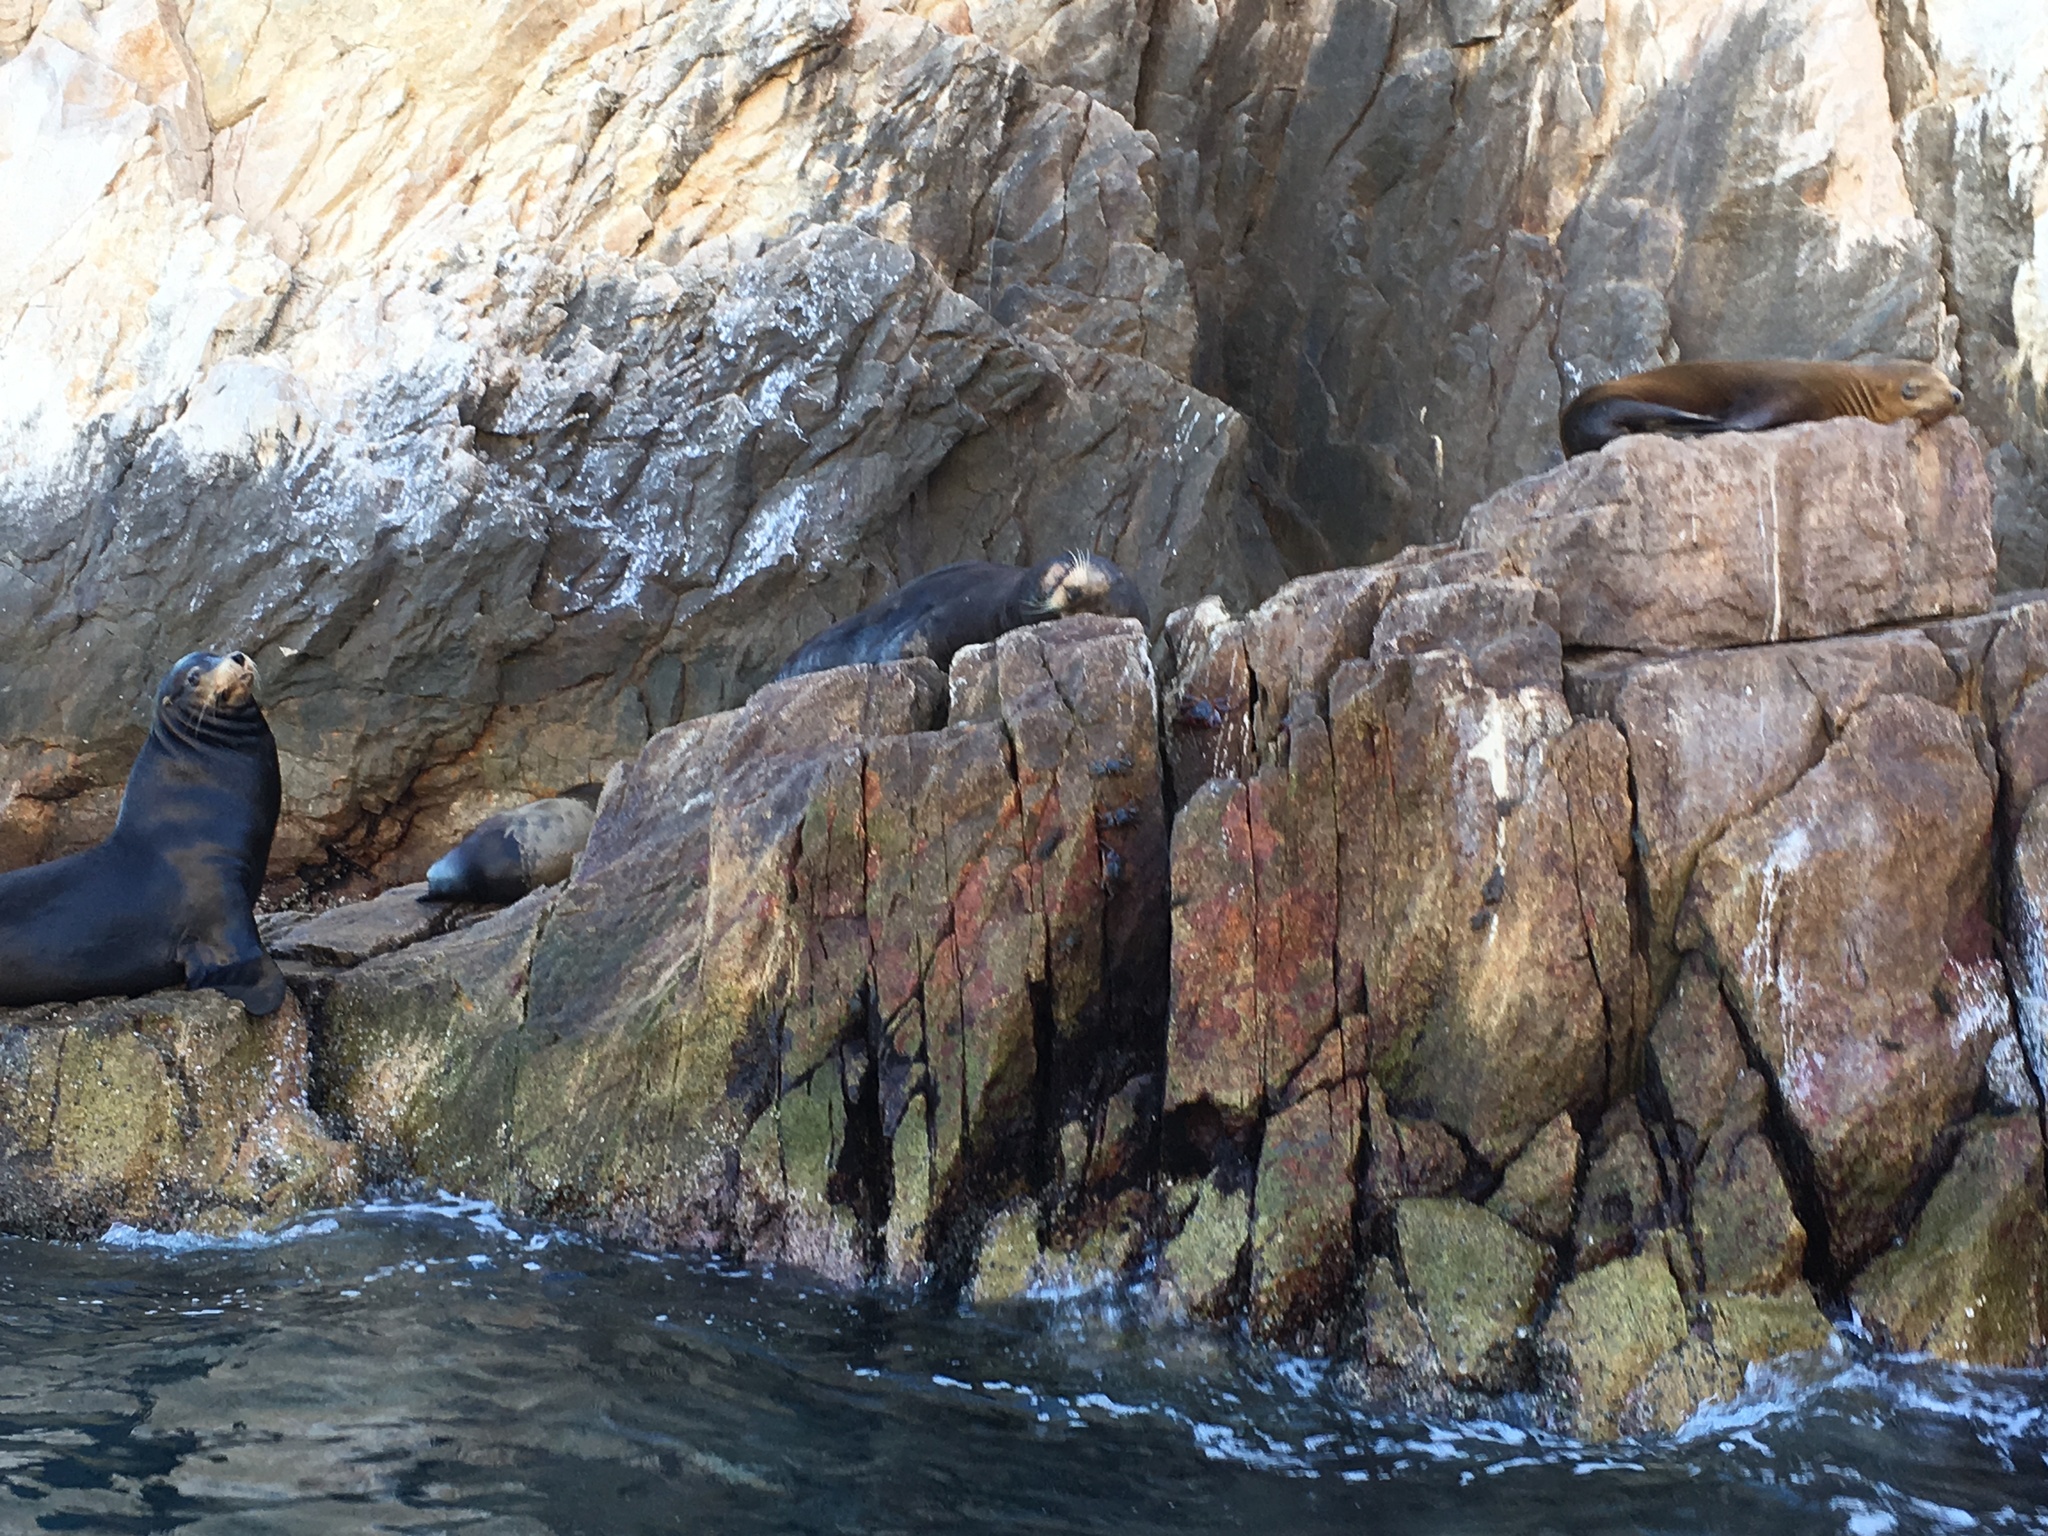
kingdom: Animalia
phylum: Chordata
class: Mammalia
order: Carnivora
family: Otariidae
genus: Zalophus
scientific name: Zalophus californianus
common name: California sea lion
